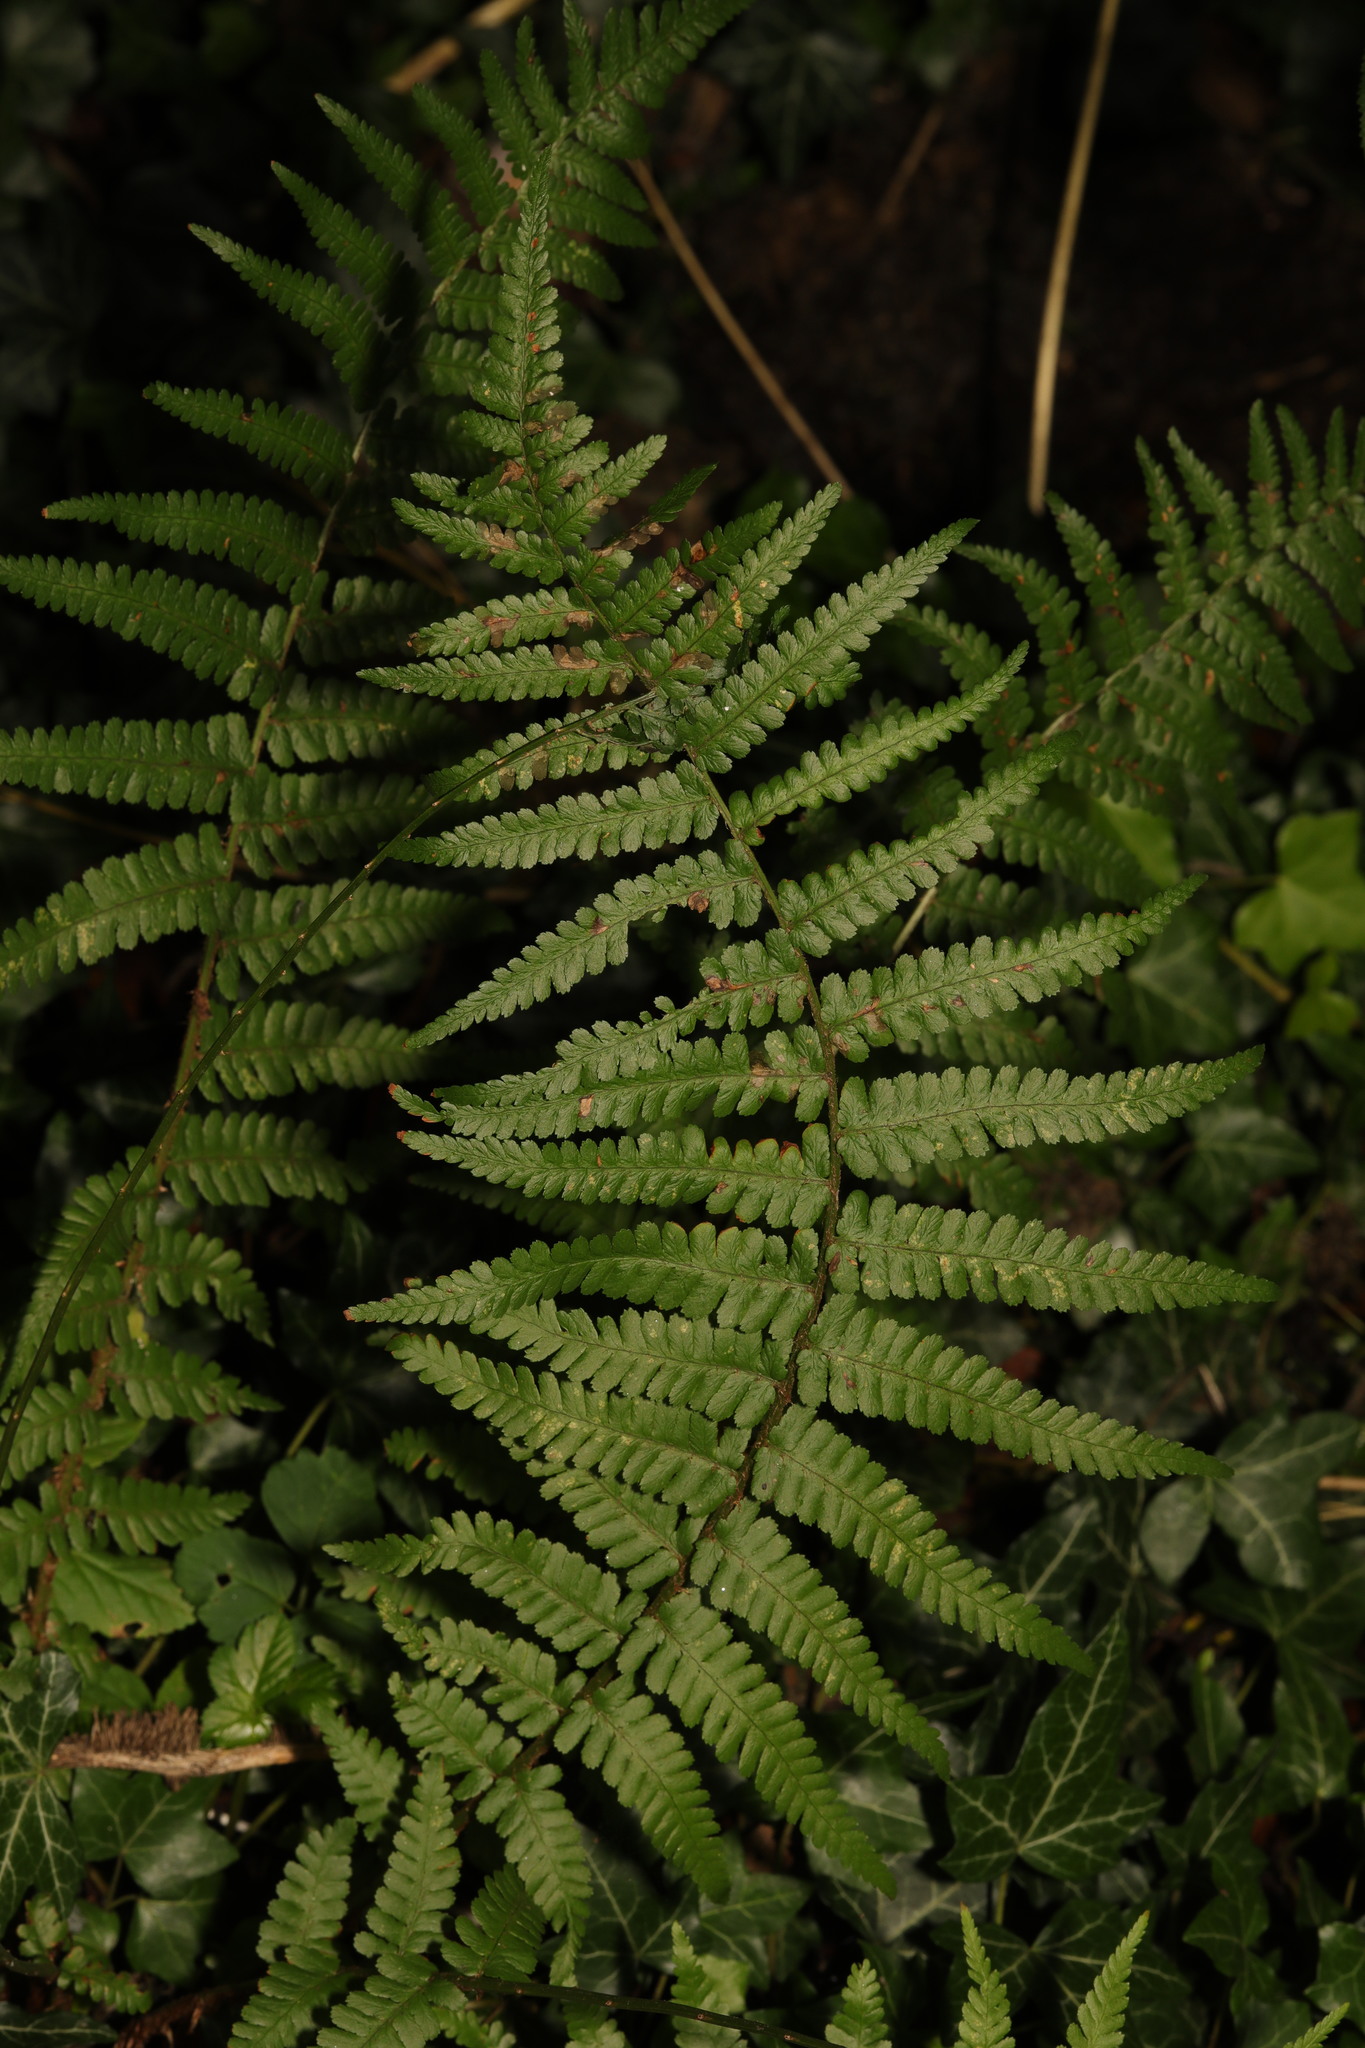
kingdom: Plantae
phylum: Tracheophyta
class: Polypodiopsida
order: Polypodiales
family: Dryopteridaceae
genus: Dryopteris
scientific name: Dryopteris filix-mas
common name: Male fern
